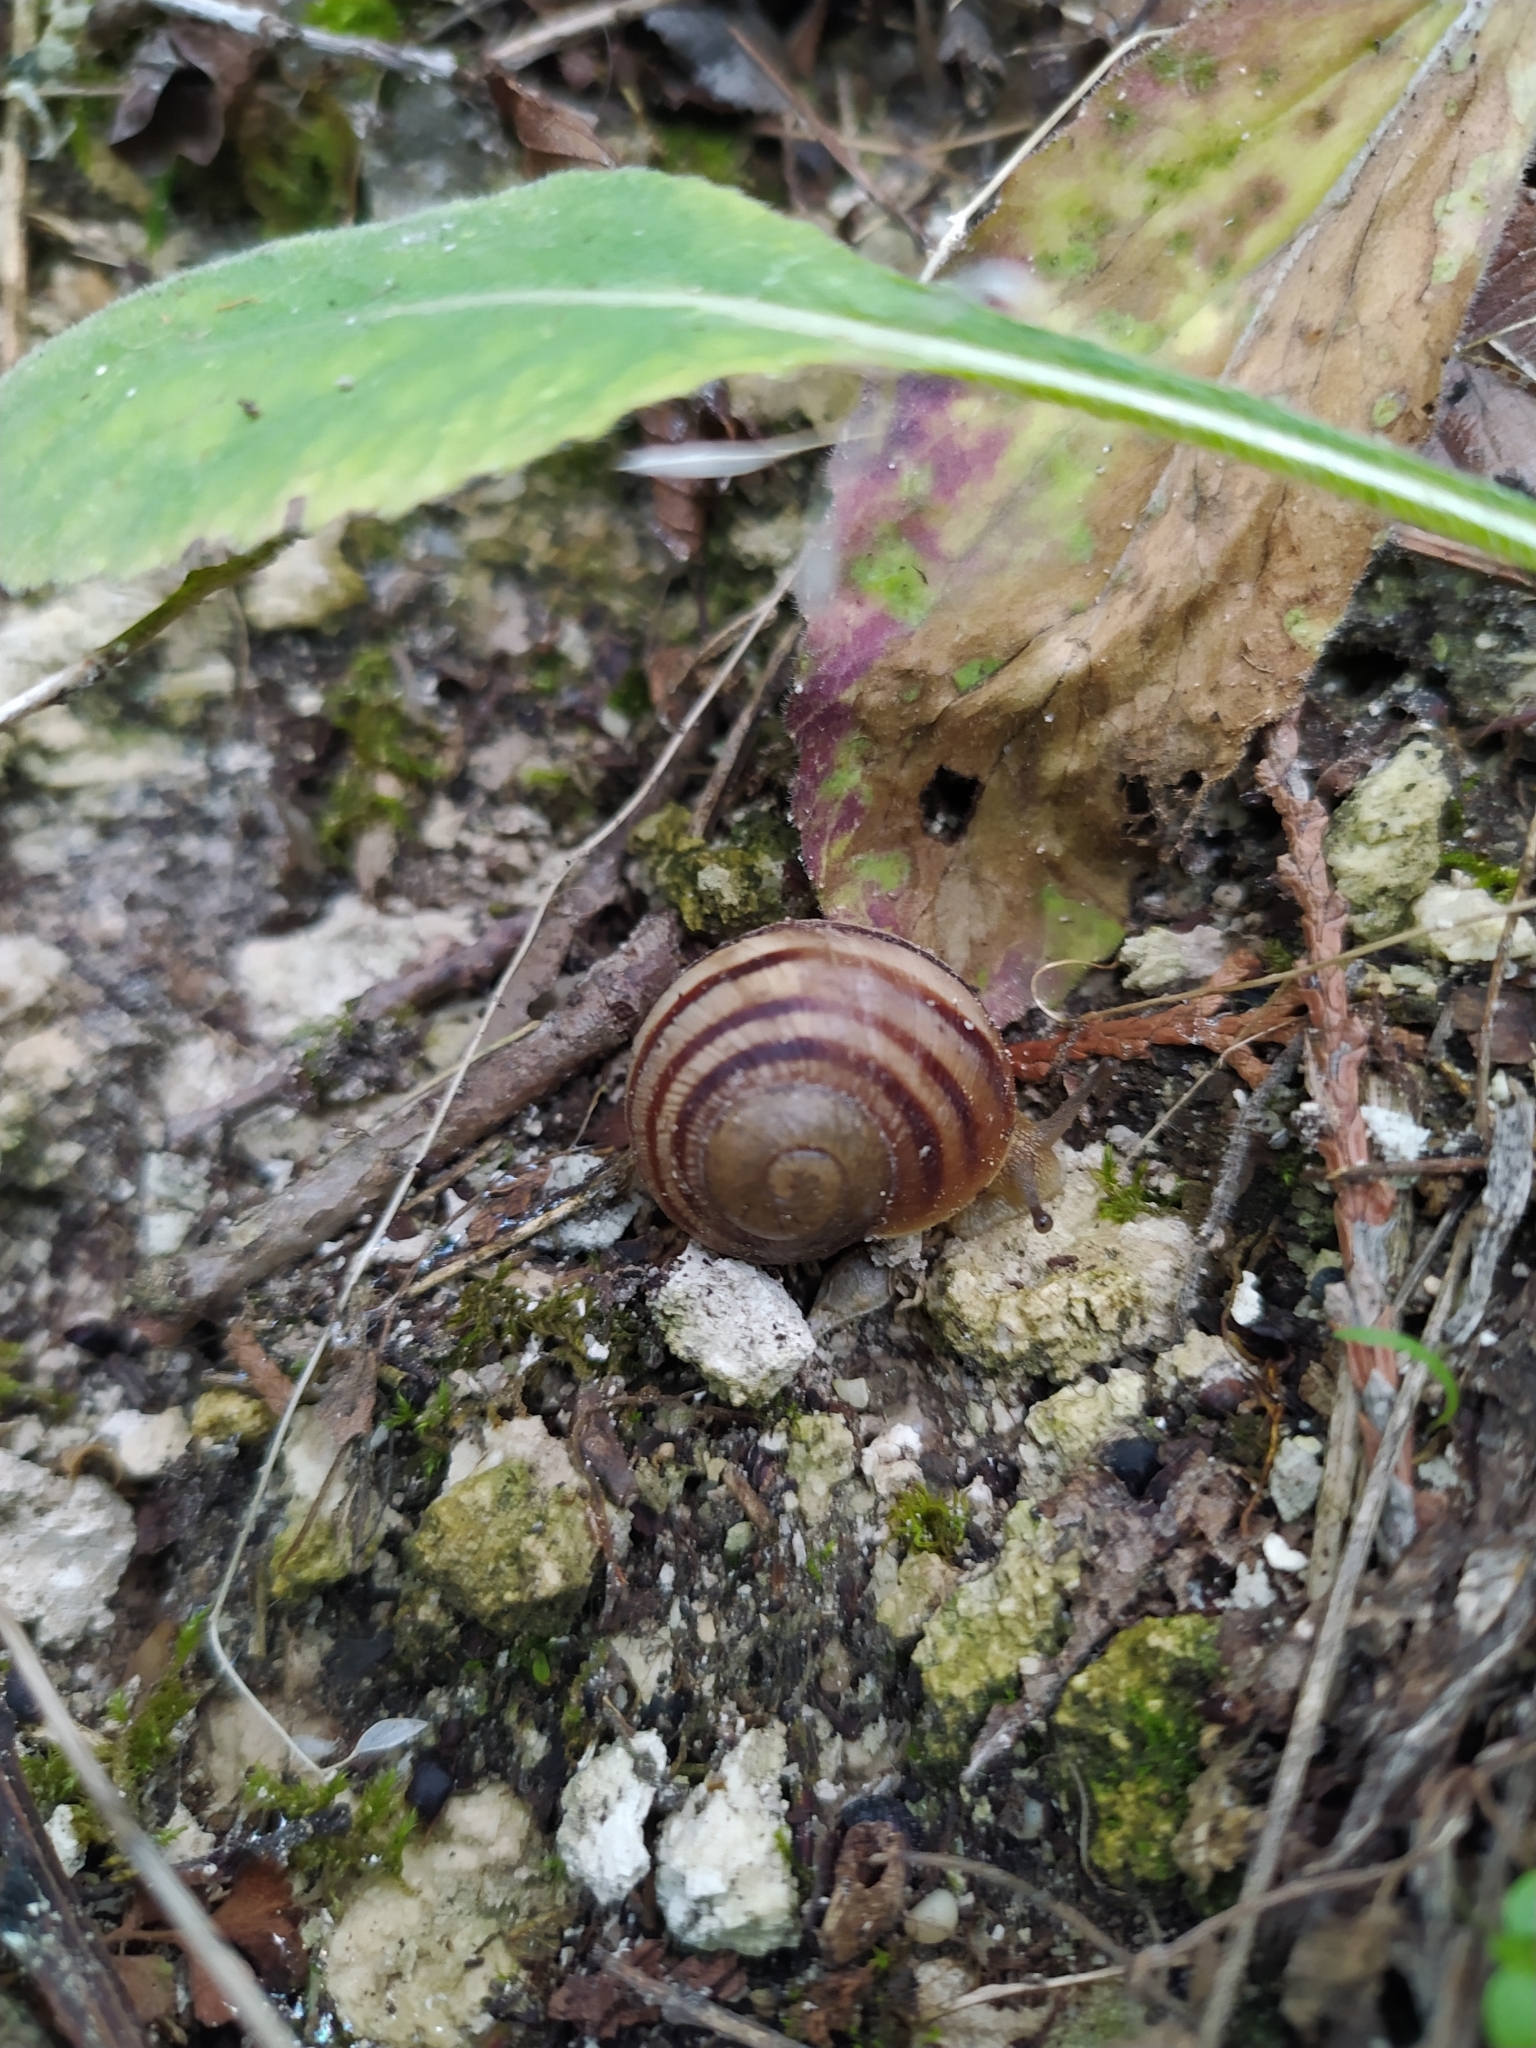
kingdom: Animalia
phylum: Mollusca
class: Gastropoda
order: Stylommatophora
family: Helicidae
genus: Helix
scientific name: Helix albescens
